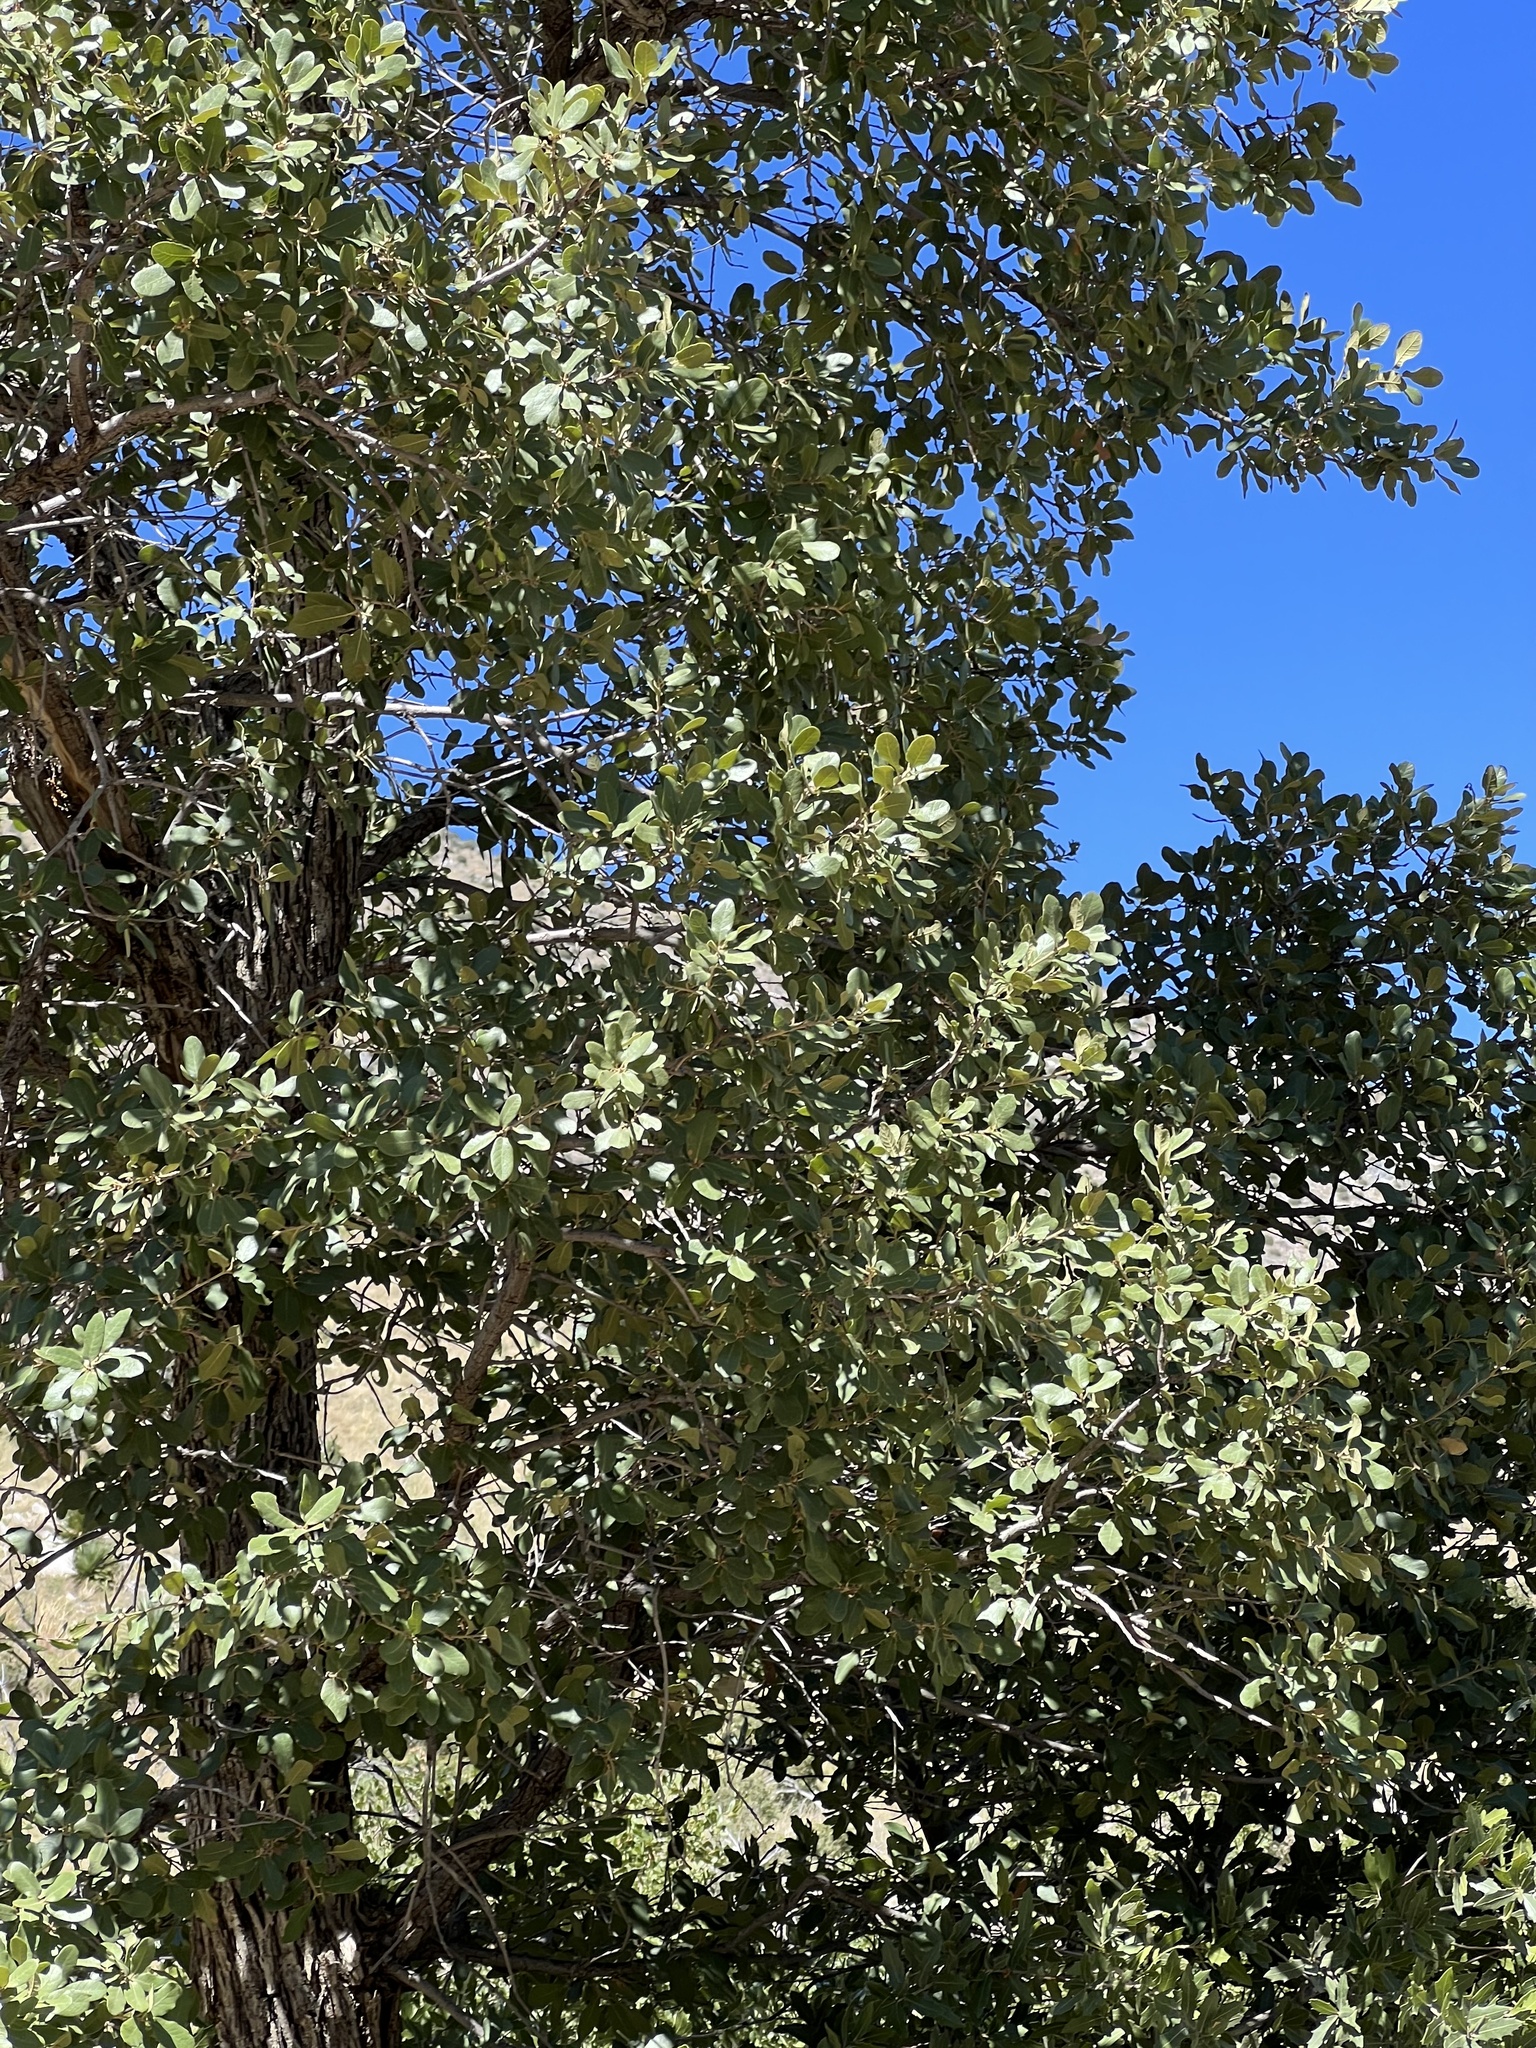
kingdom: Plantae
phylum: Tracheophyta
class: Magnoliopsida
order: Fagales
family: Fagaceae
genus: Quercus
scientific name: Quercus oblongifolia
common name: Mexican blue oak
